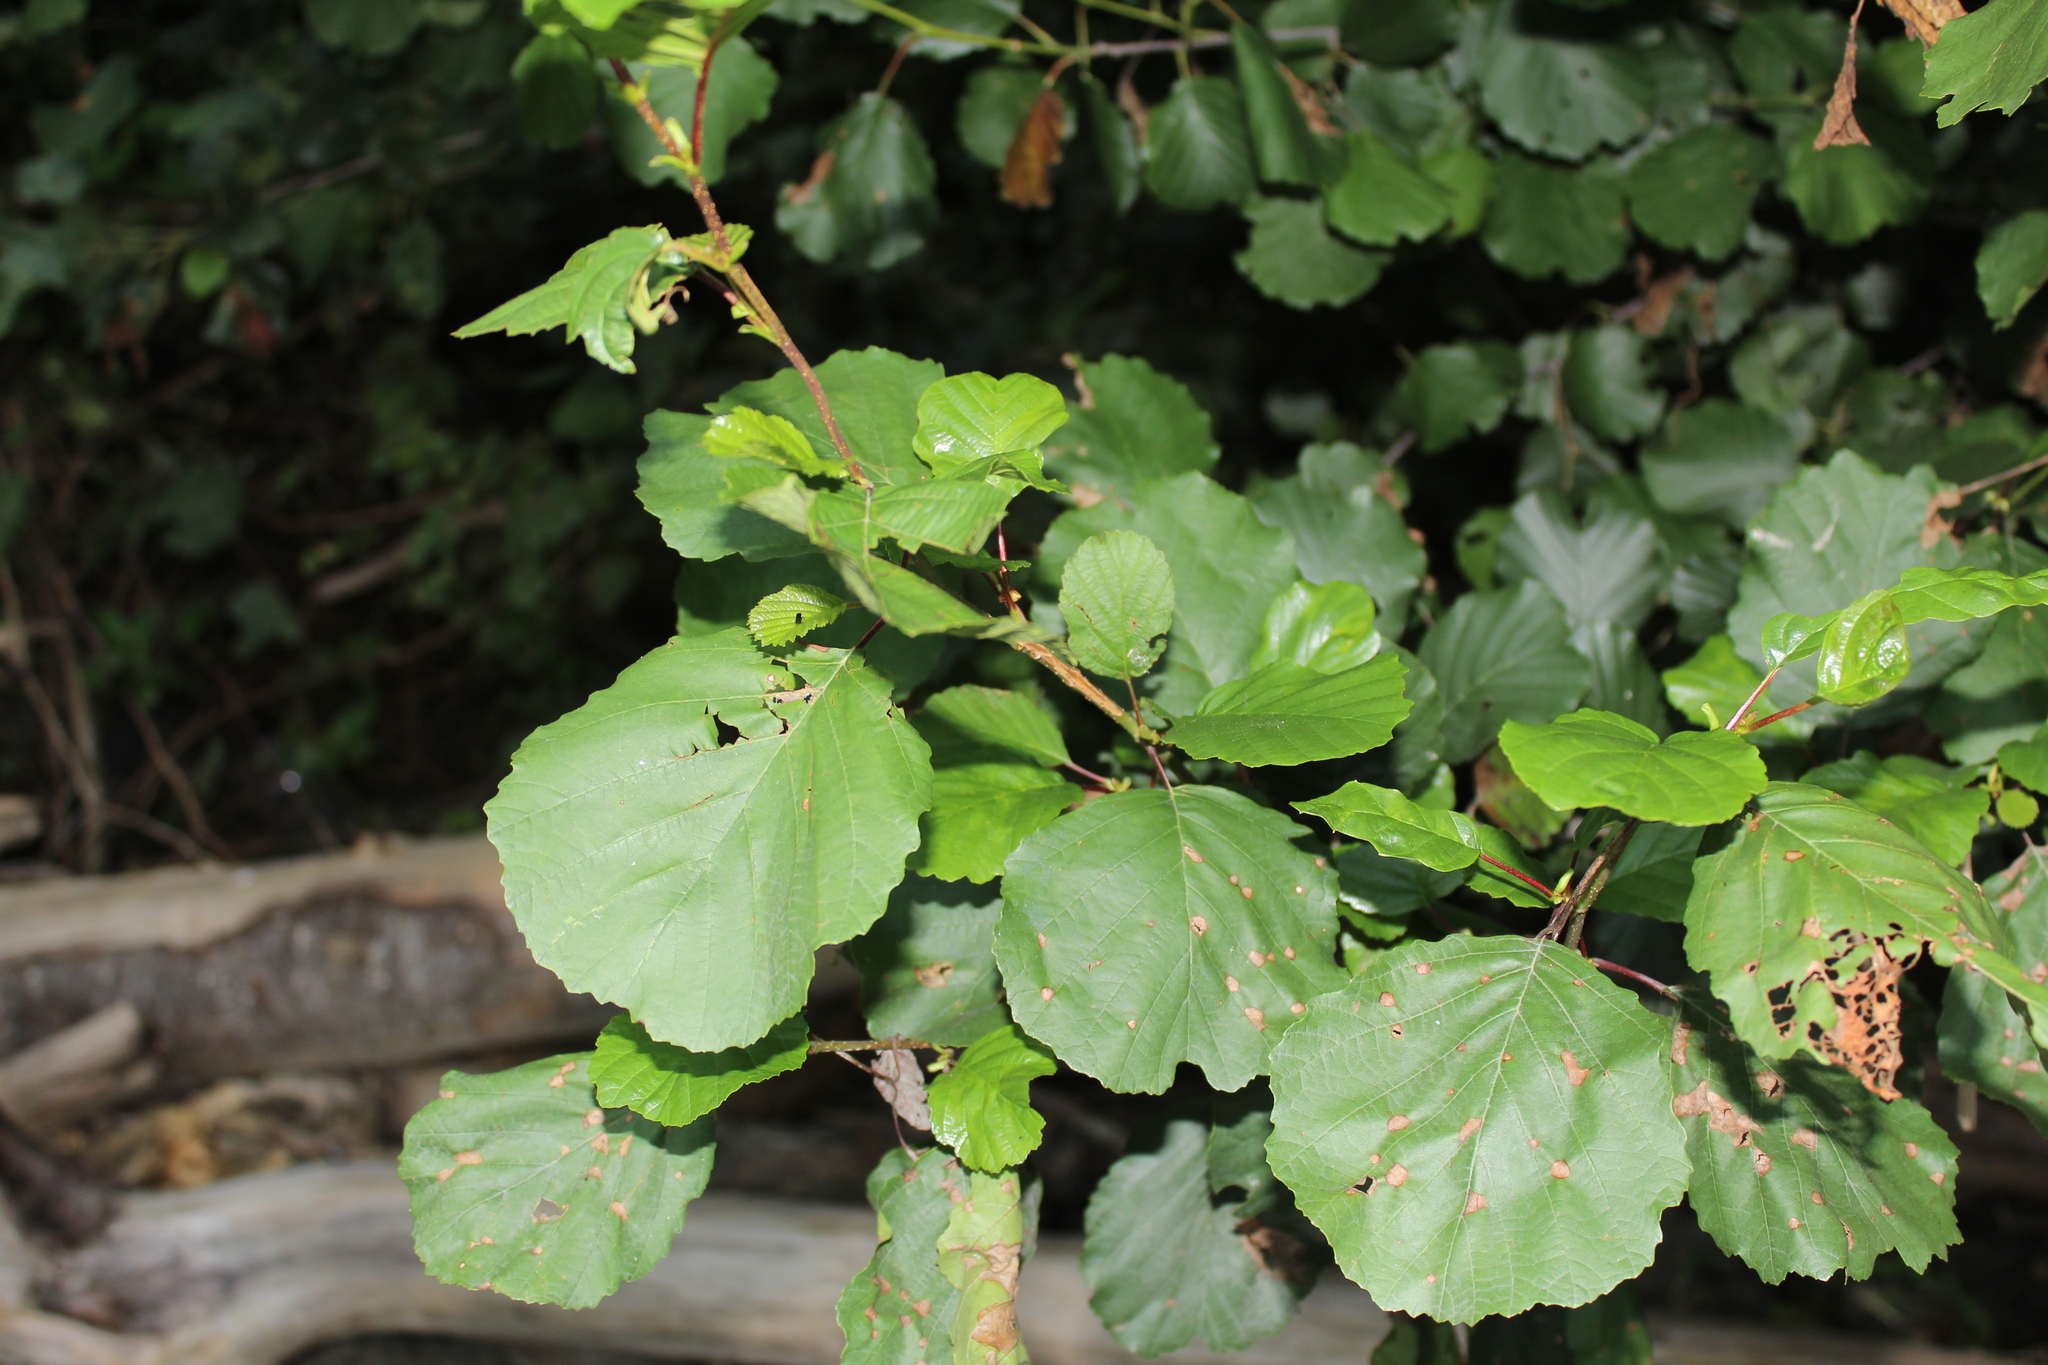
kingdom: Plantae
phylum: Tracheophyta
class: Magnoliopsida
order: Saxifragales
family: Hamamelidaceae
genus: Hamamelis
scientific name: Hamamelis virginiana
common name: Witch-hazel
